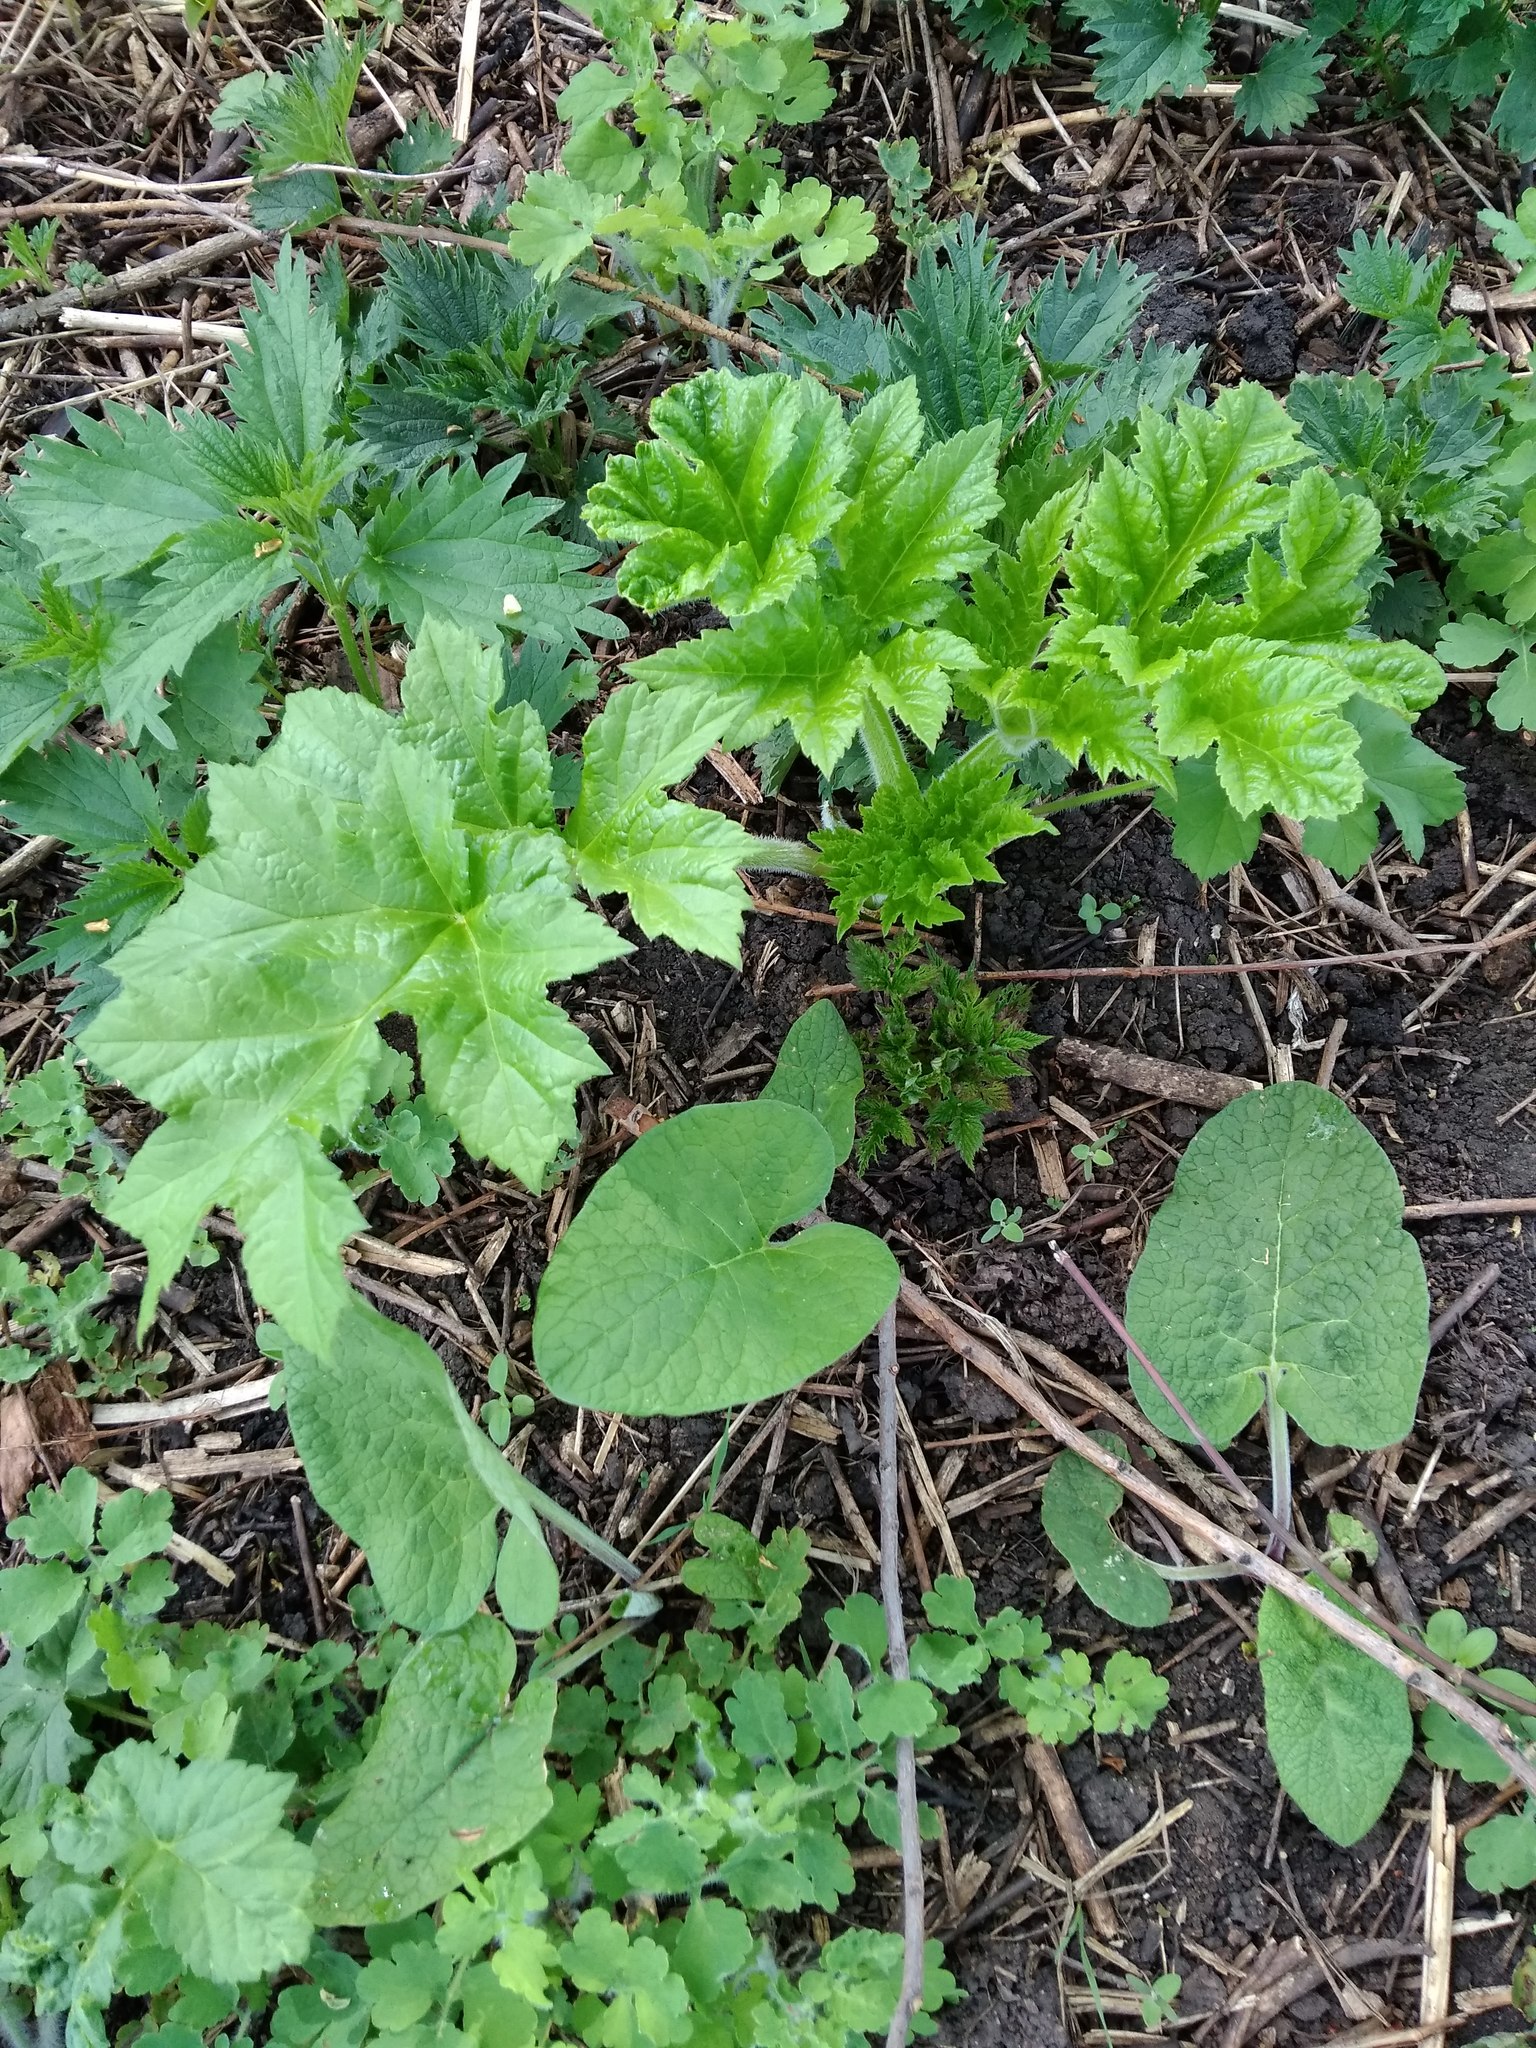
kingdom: Plantae
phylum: Tracheophyta
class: Magnoliopsida
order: Apiales
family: Apiaceae
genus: Heracleum
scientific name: Heracleum sphondylium
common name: Hogweed
